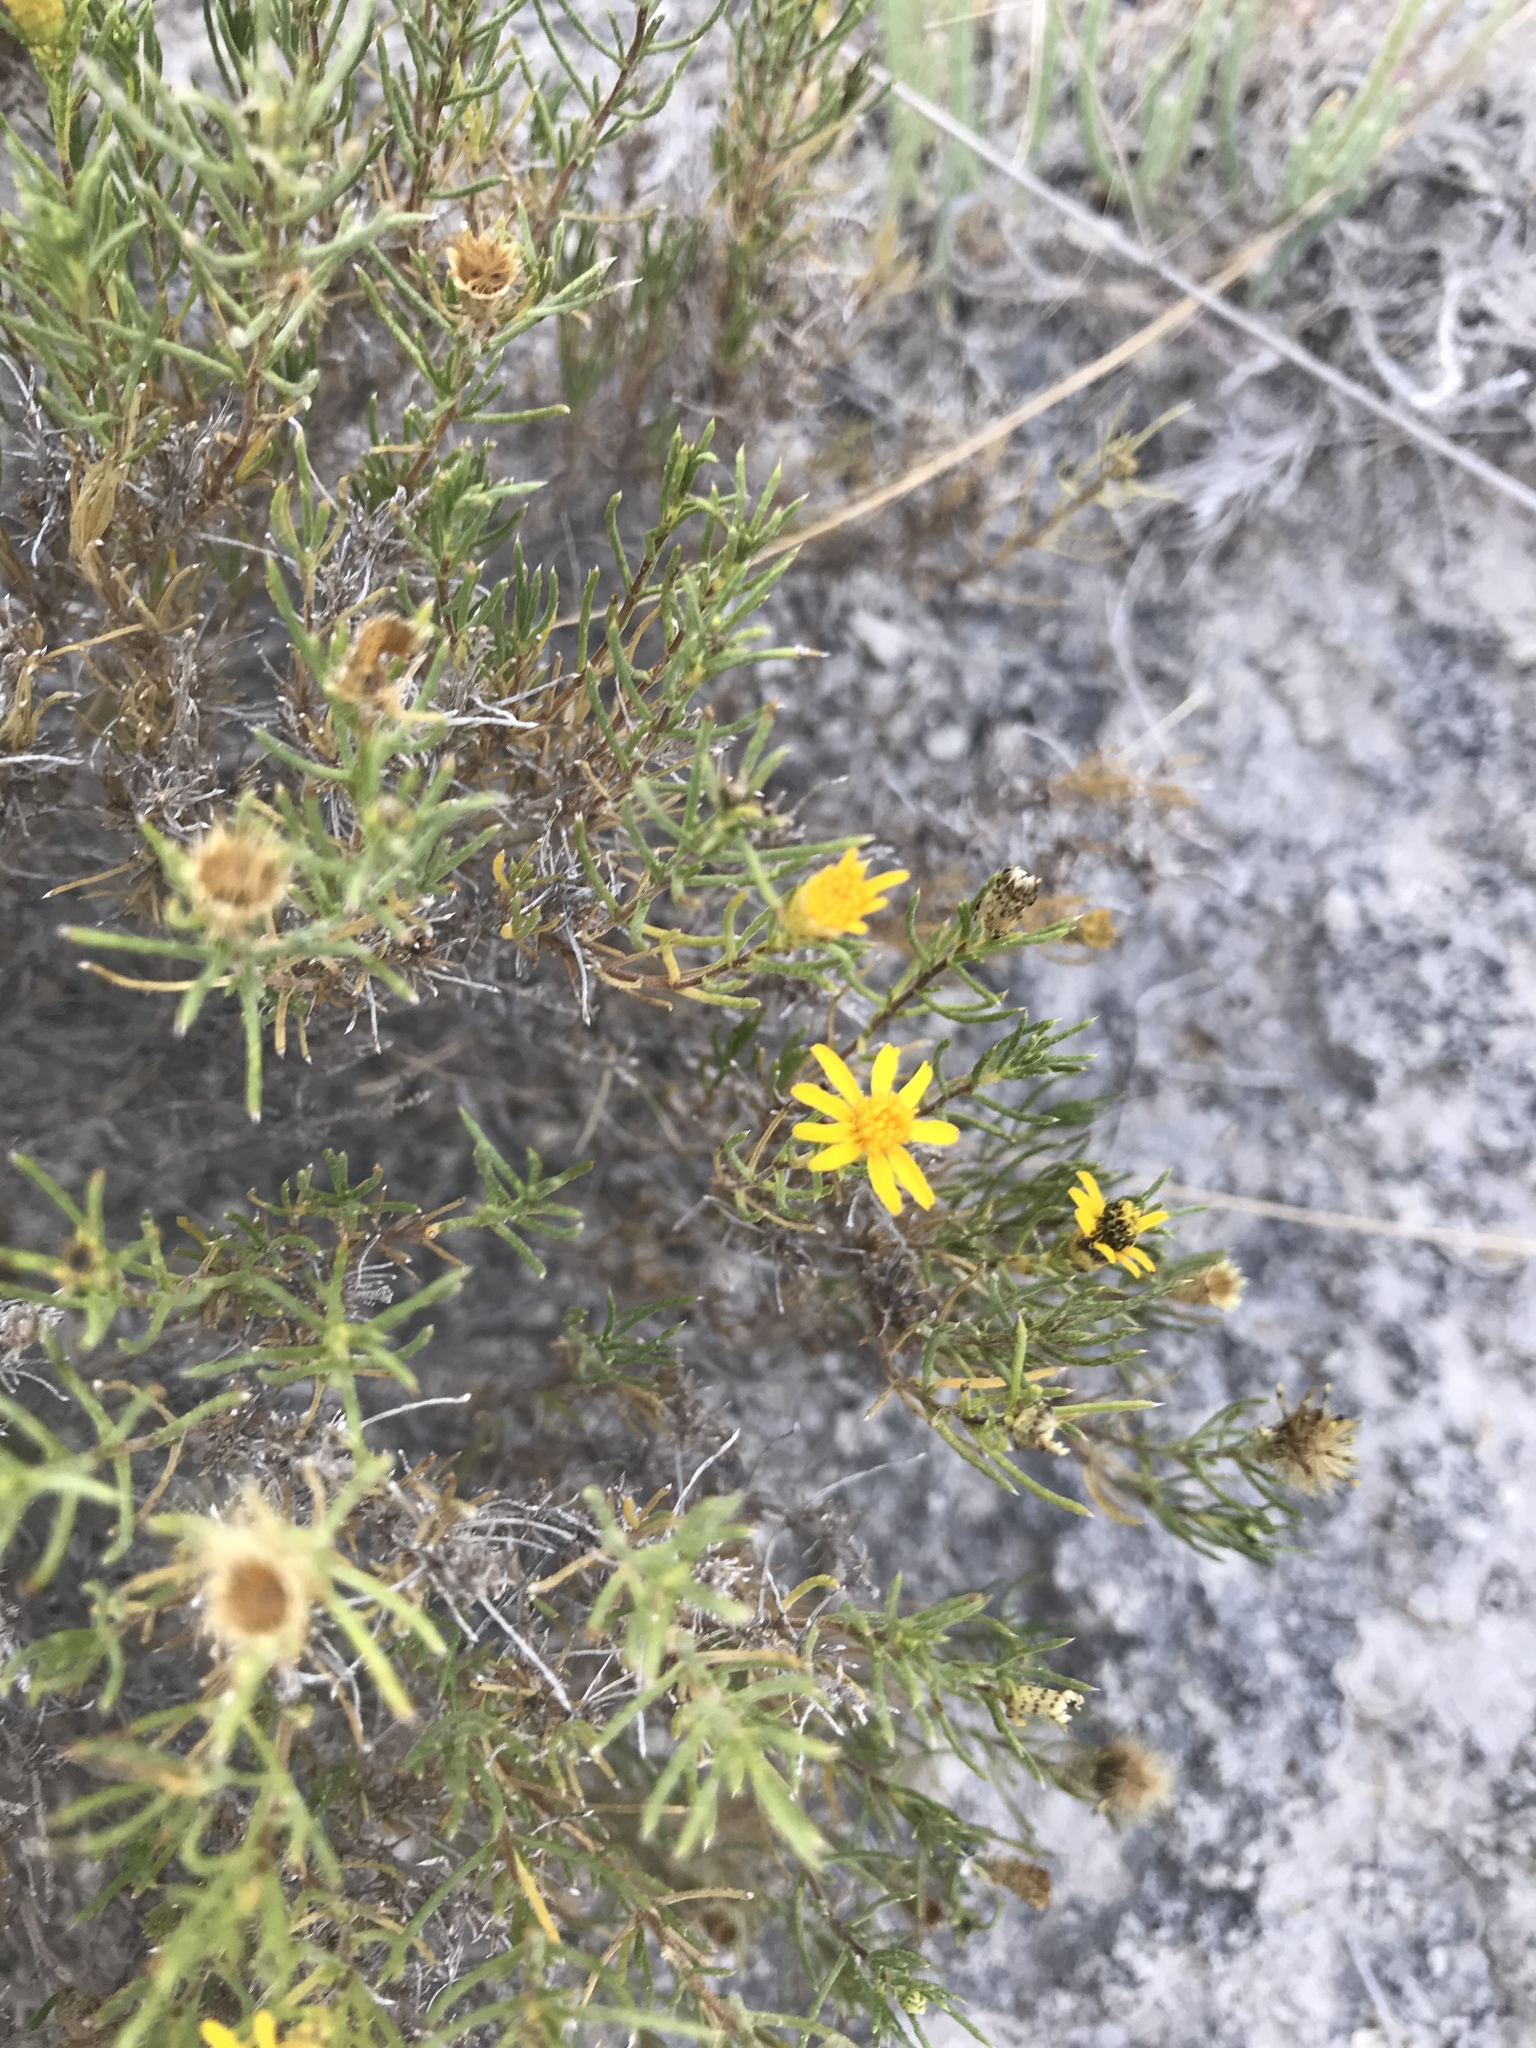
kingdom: Plantae
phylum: Tracheophyta
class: Magnoliopsida
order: Asterales
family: Asteraceae
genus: Thymophylla
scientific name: Thymophylla acerosa
